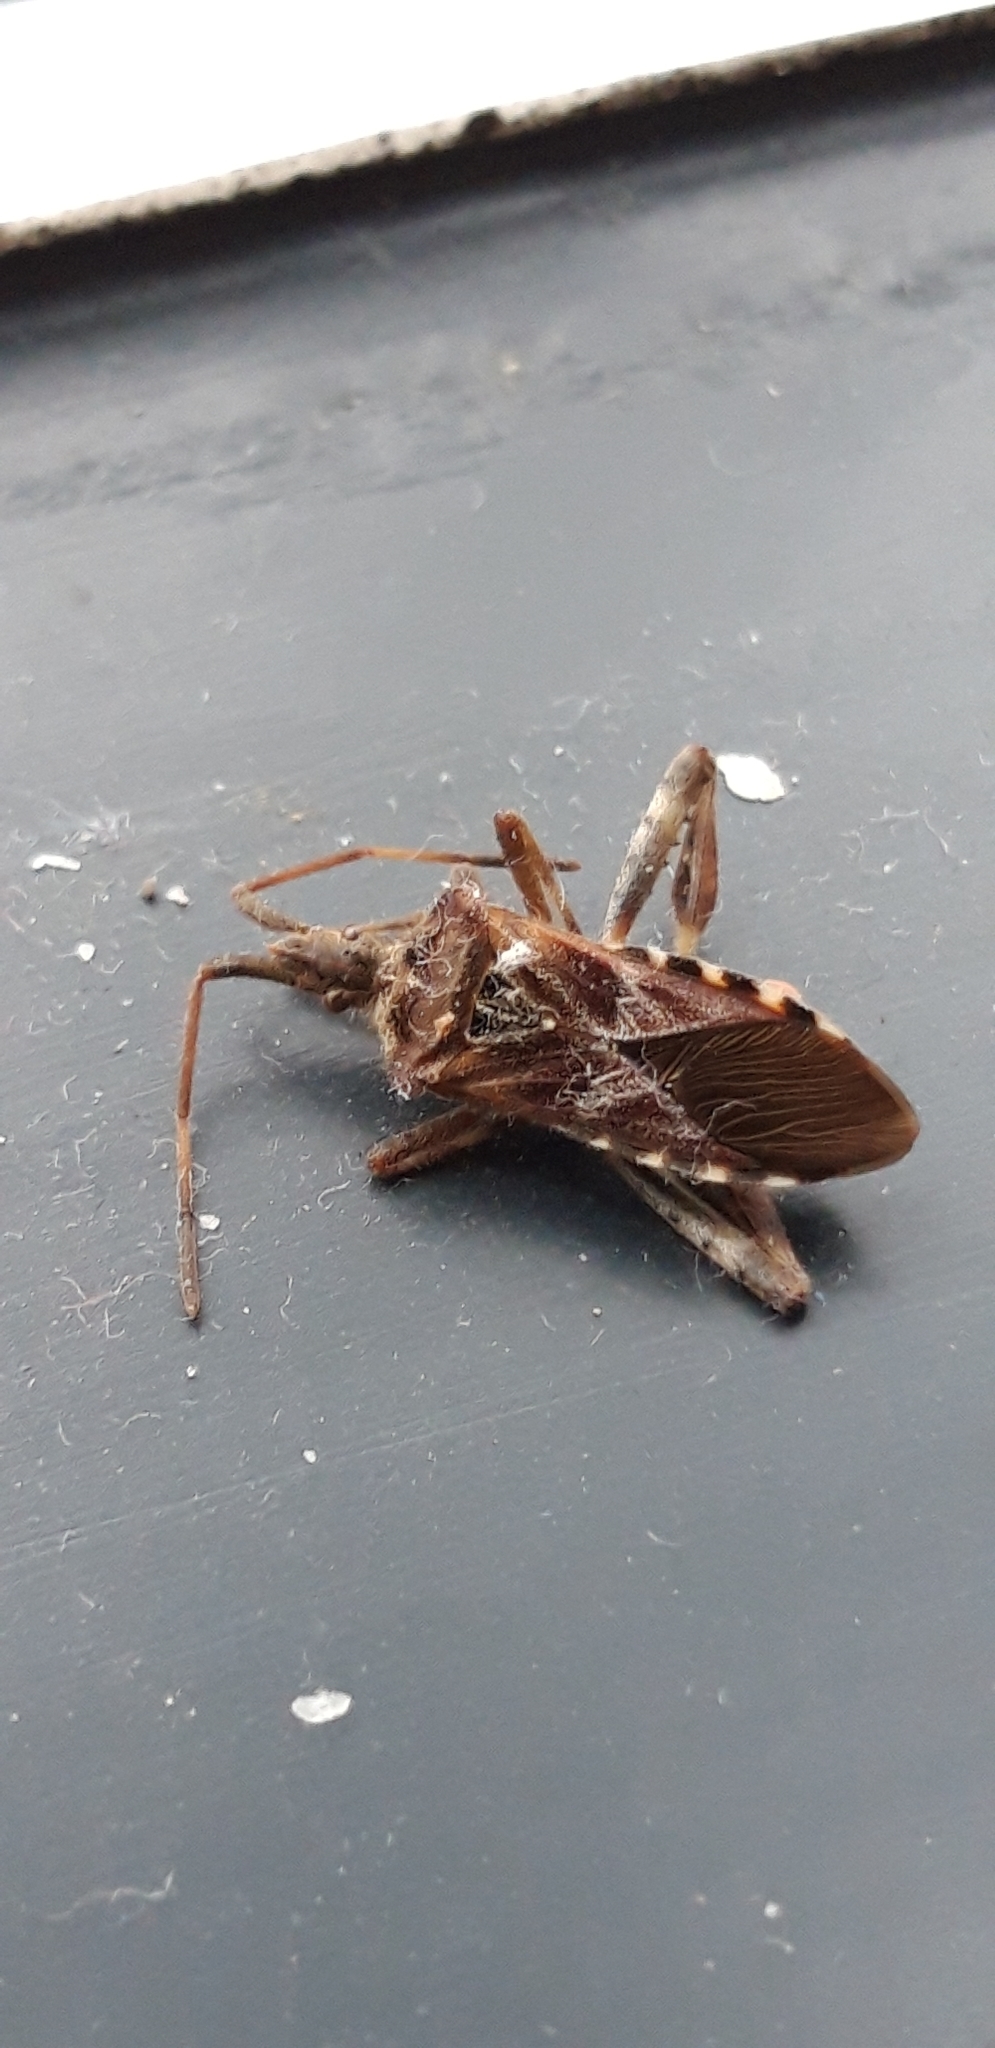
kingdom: Animalia
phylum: Arthropoda
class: Insecta
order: Hemiptera
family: Coreidae
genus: Leptoglossus
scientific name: Leptoglossus occidentalis
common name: Western conifer-seed bug
